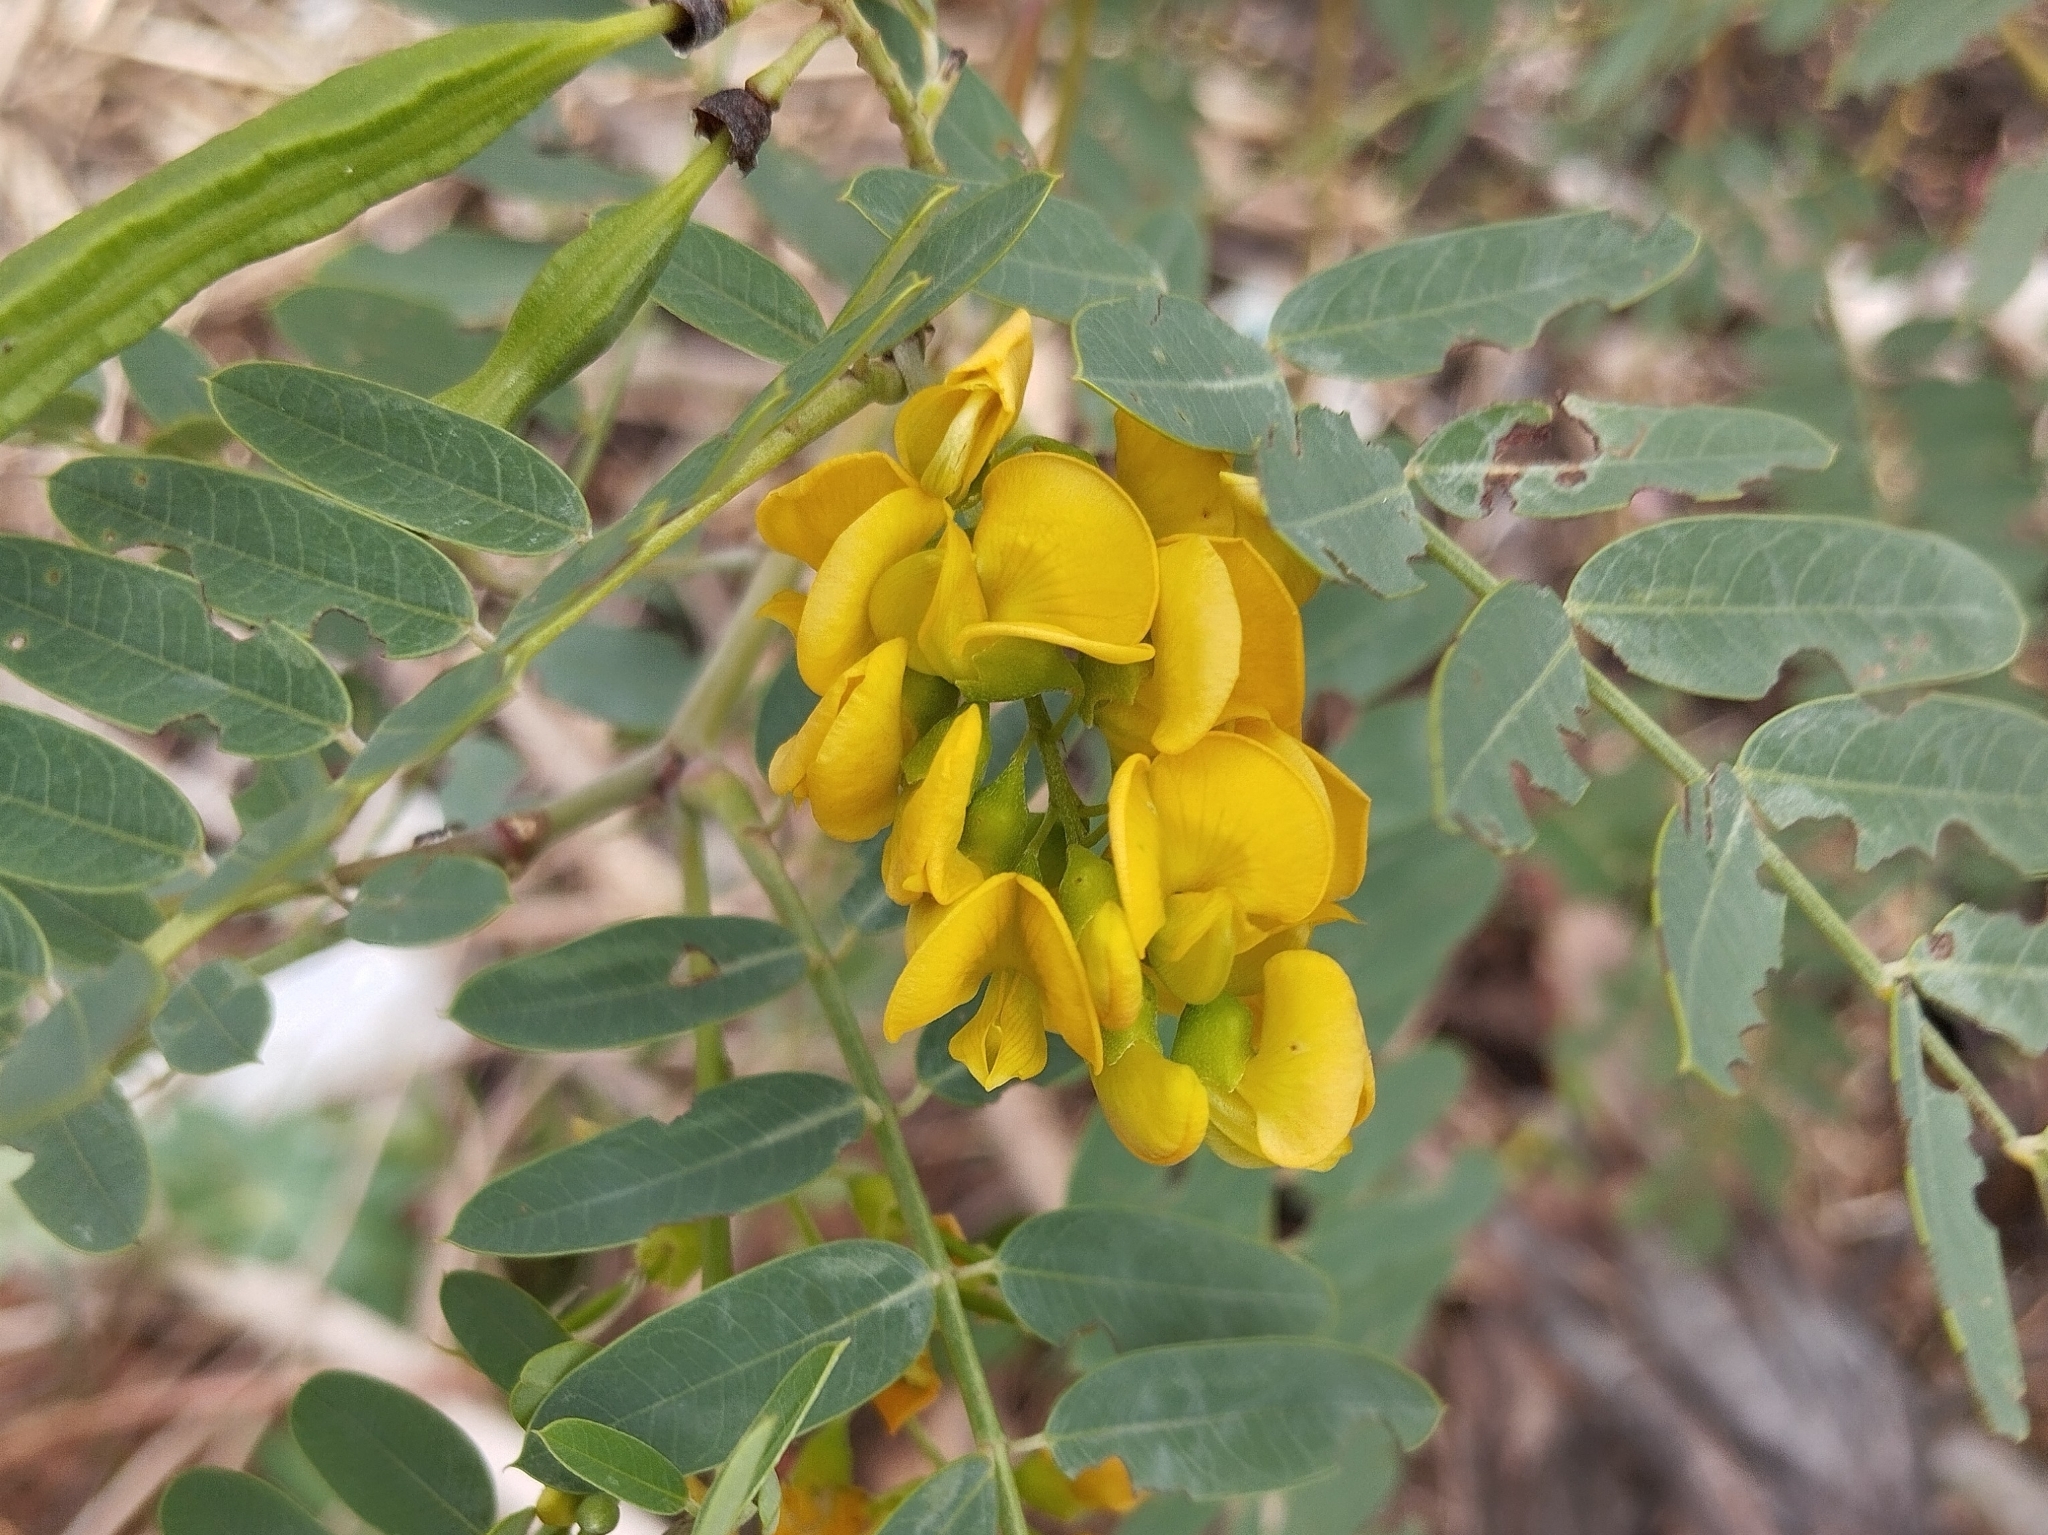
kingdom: Plantae
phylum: Tracheophyta
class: Magnoliopsida
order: Fabales
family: Fabaceae
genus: Sesbania
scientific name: Sesbania virgata
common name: Wand riverhemp
